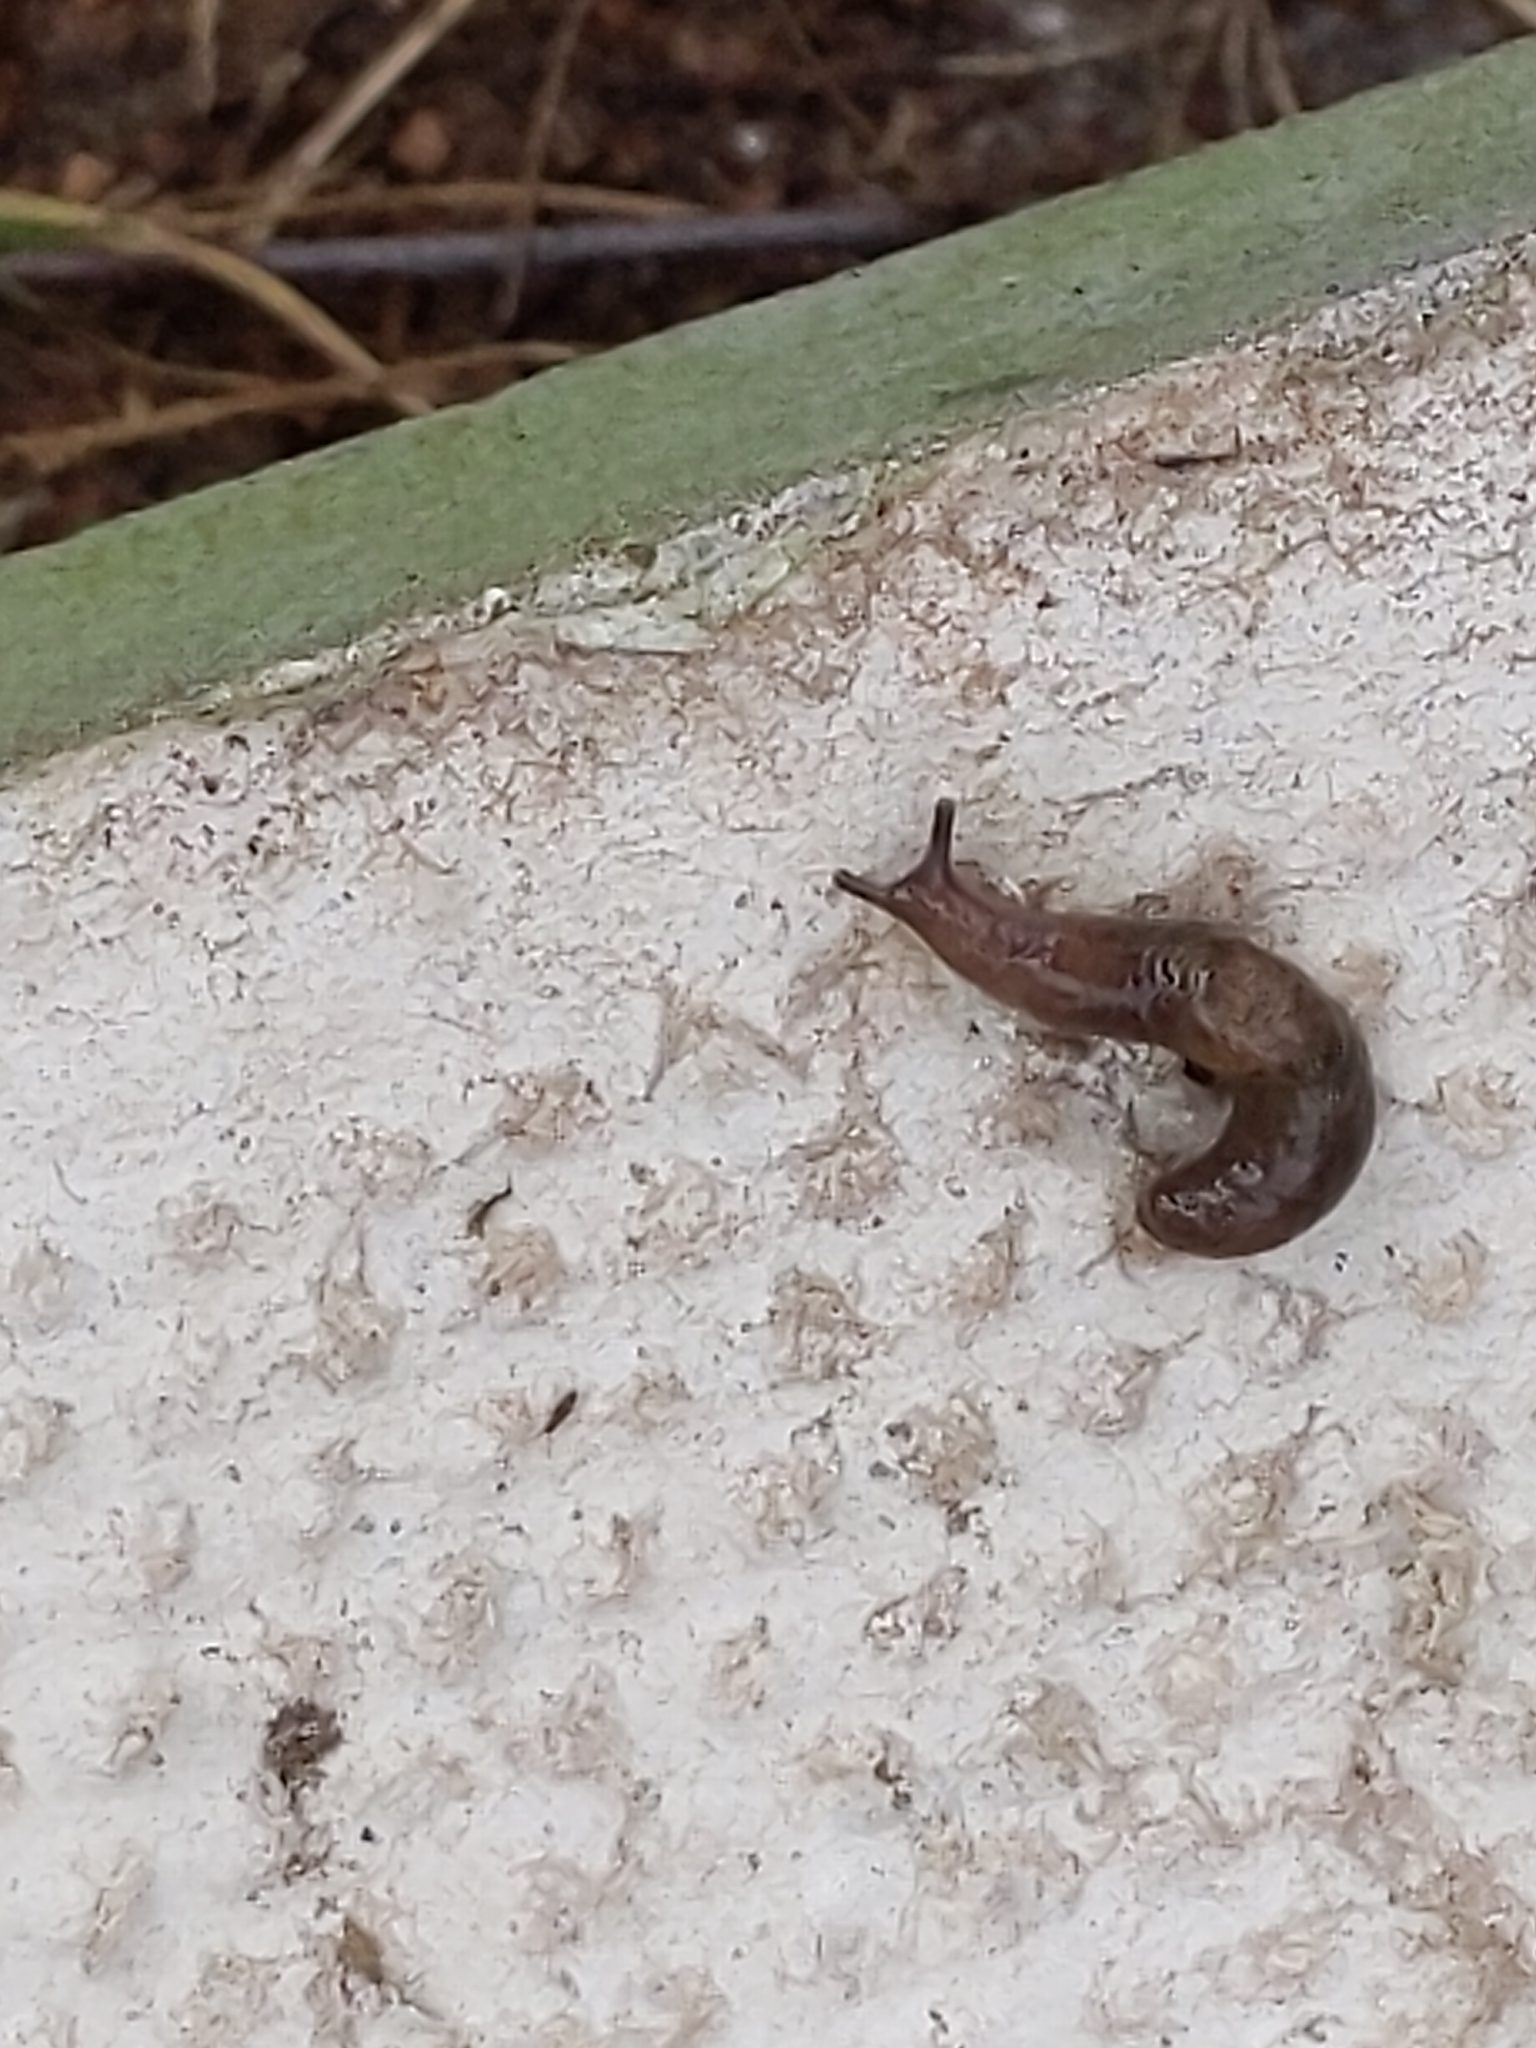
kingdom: Animalia
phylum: Mollusca
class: Gastropoda
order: Stylommatophora
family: Agriolimacidae
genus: Deroceras
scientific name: Deroceras reticulatum
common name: Gray field slug
